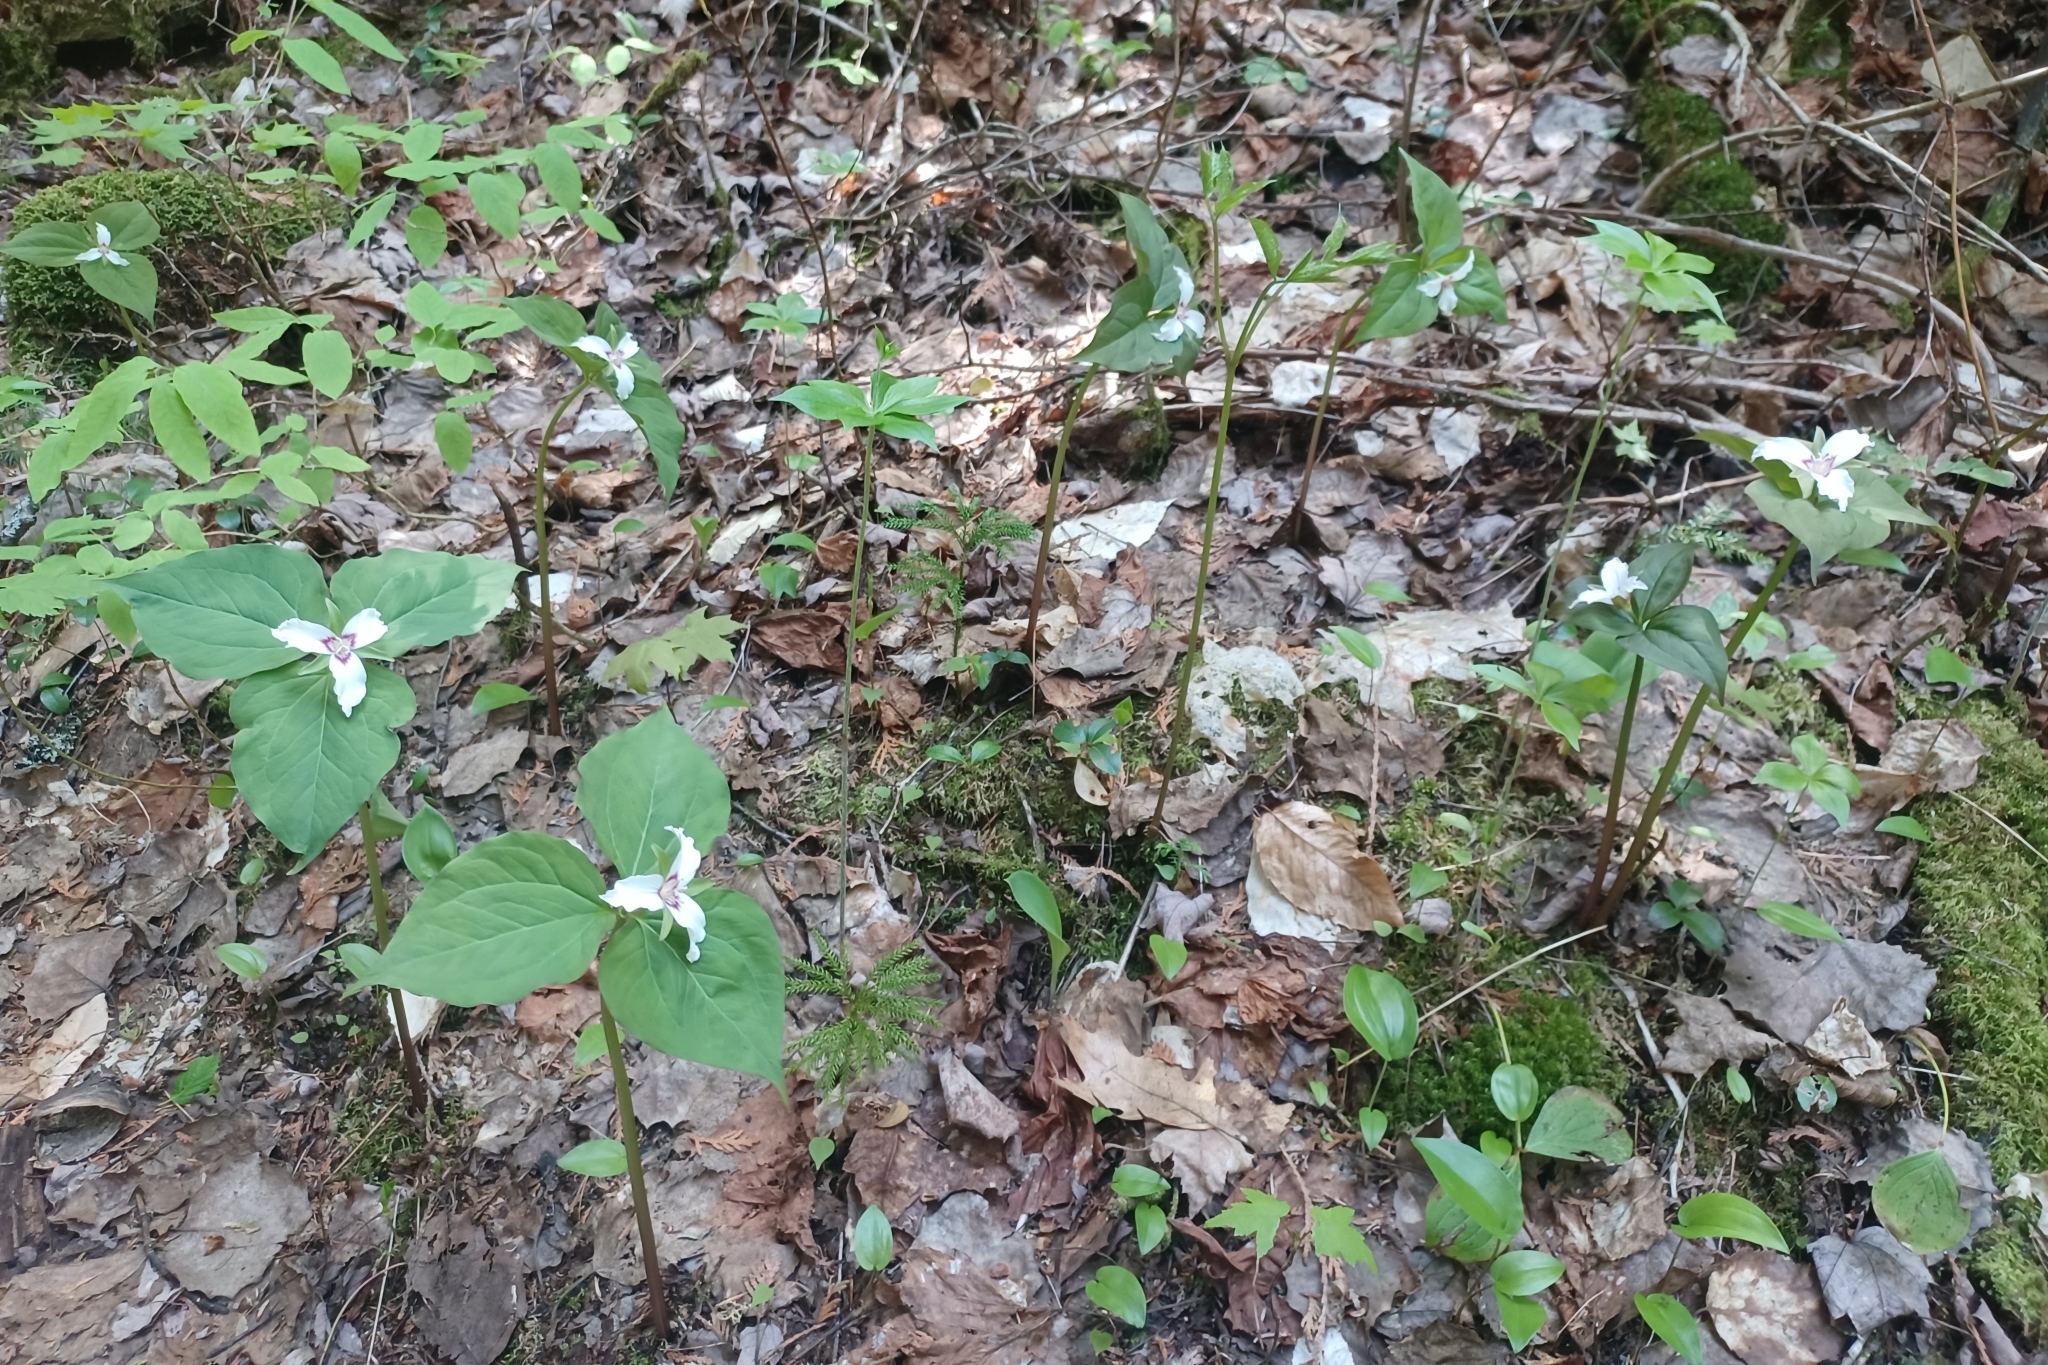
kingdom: Plantae
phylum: Tracheophyta
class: Liliopsida
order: Liliales
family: Melanthiaceae
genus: Trillium
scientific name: Trillium undulatum
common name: Paint trillium
